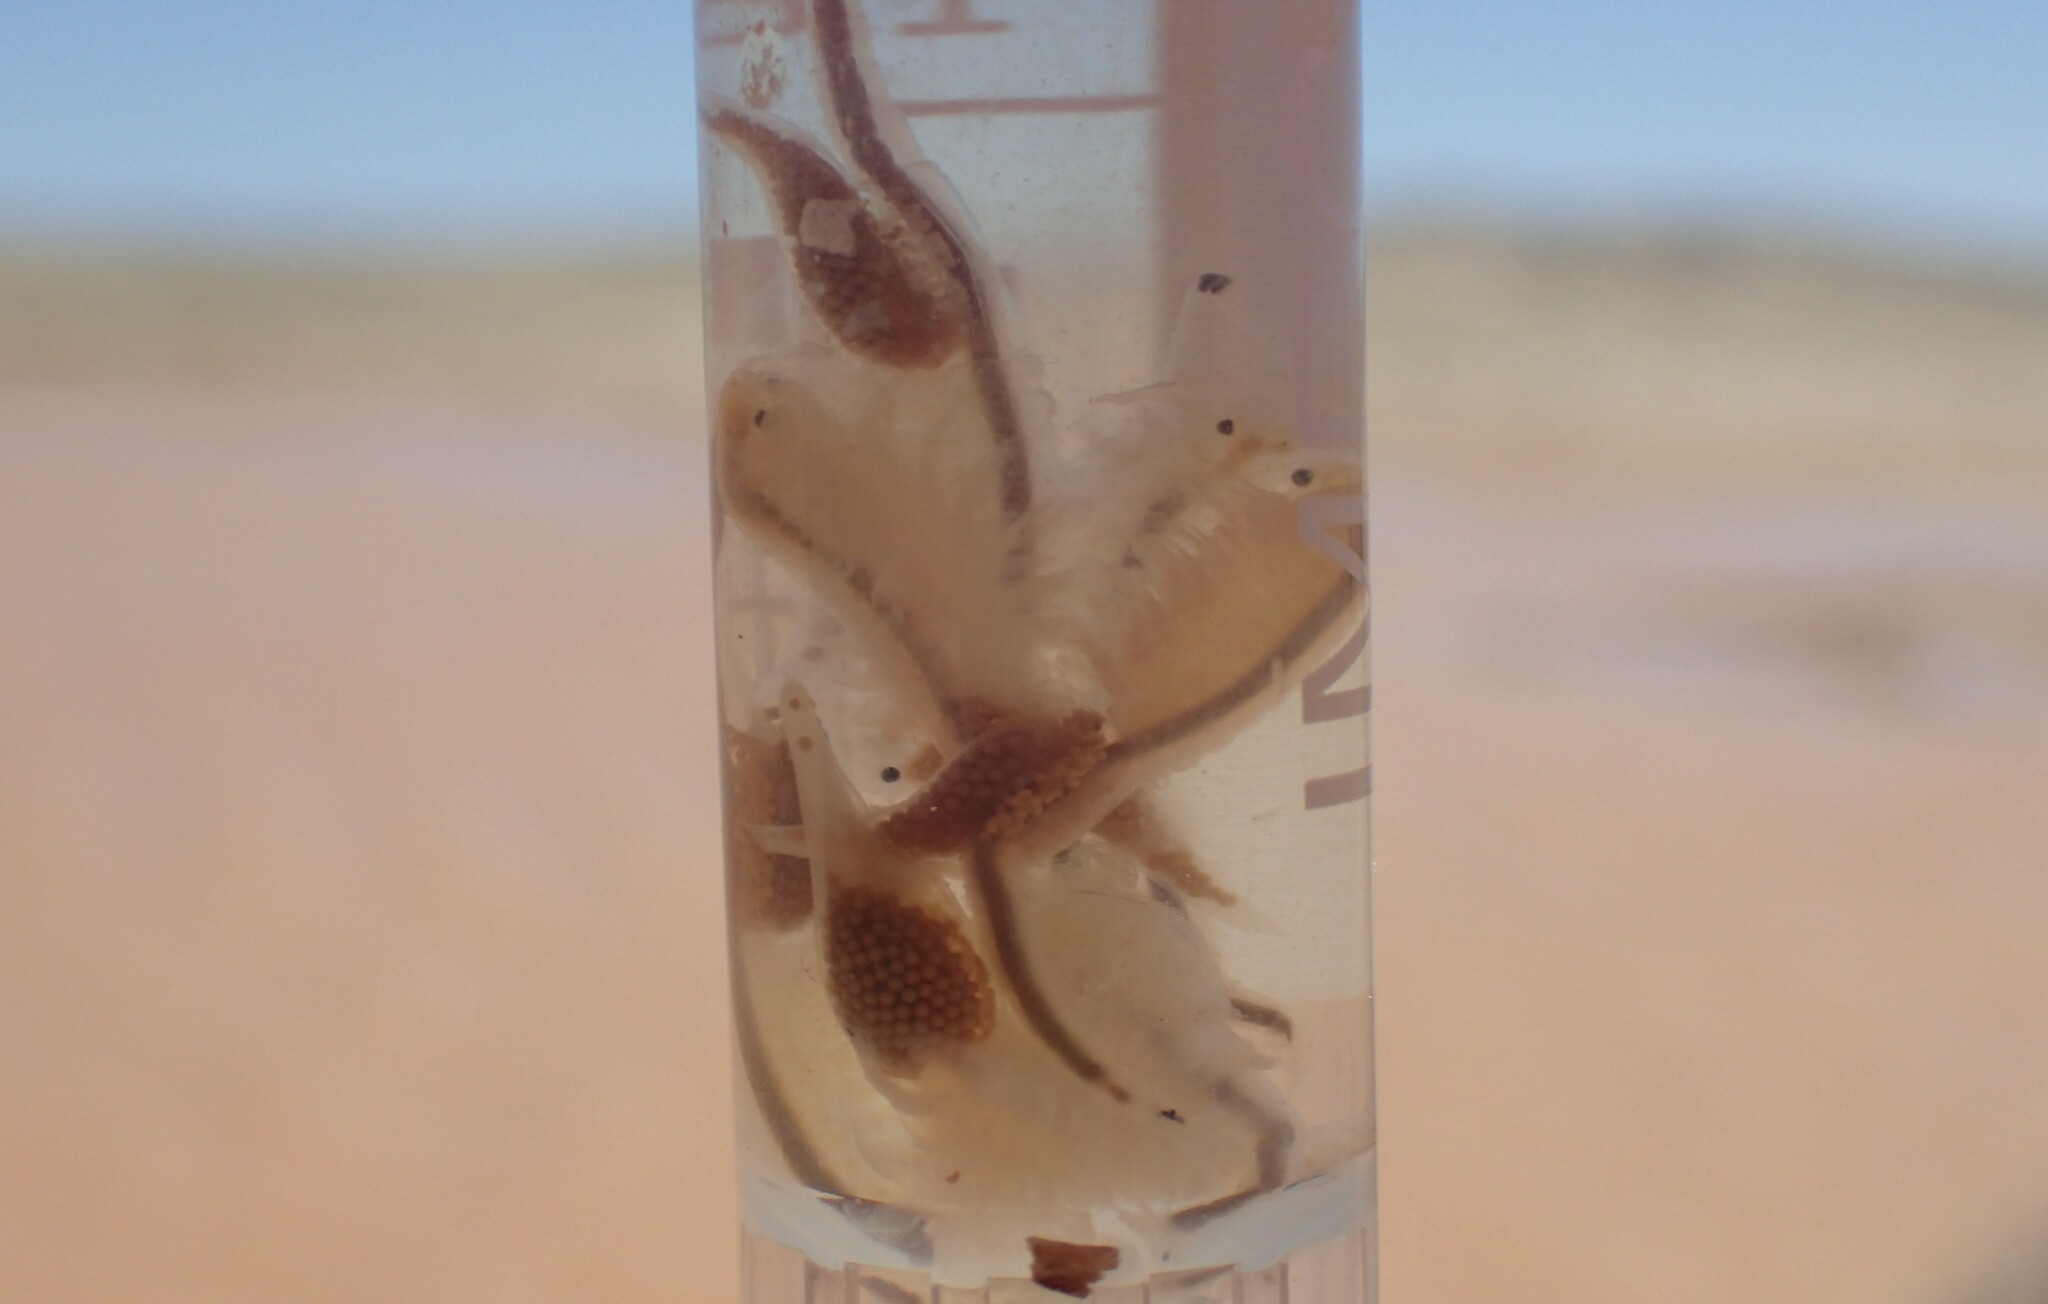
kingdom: Animalia
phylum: Arthropoda
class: Branchiopoda
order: Anostraca
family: Branchipodidae
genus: Pumilibranchipus
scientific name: Pumilibranchipus deserti
